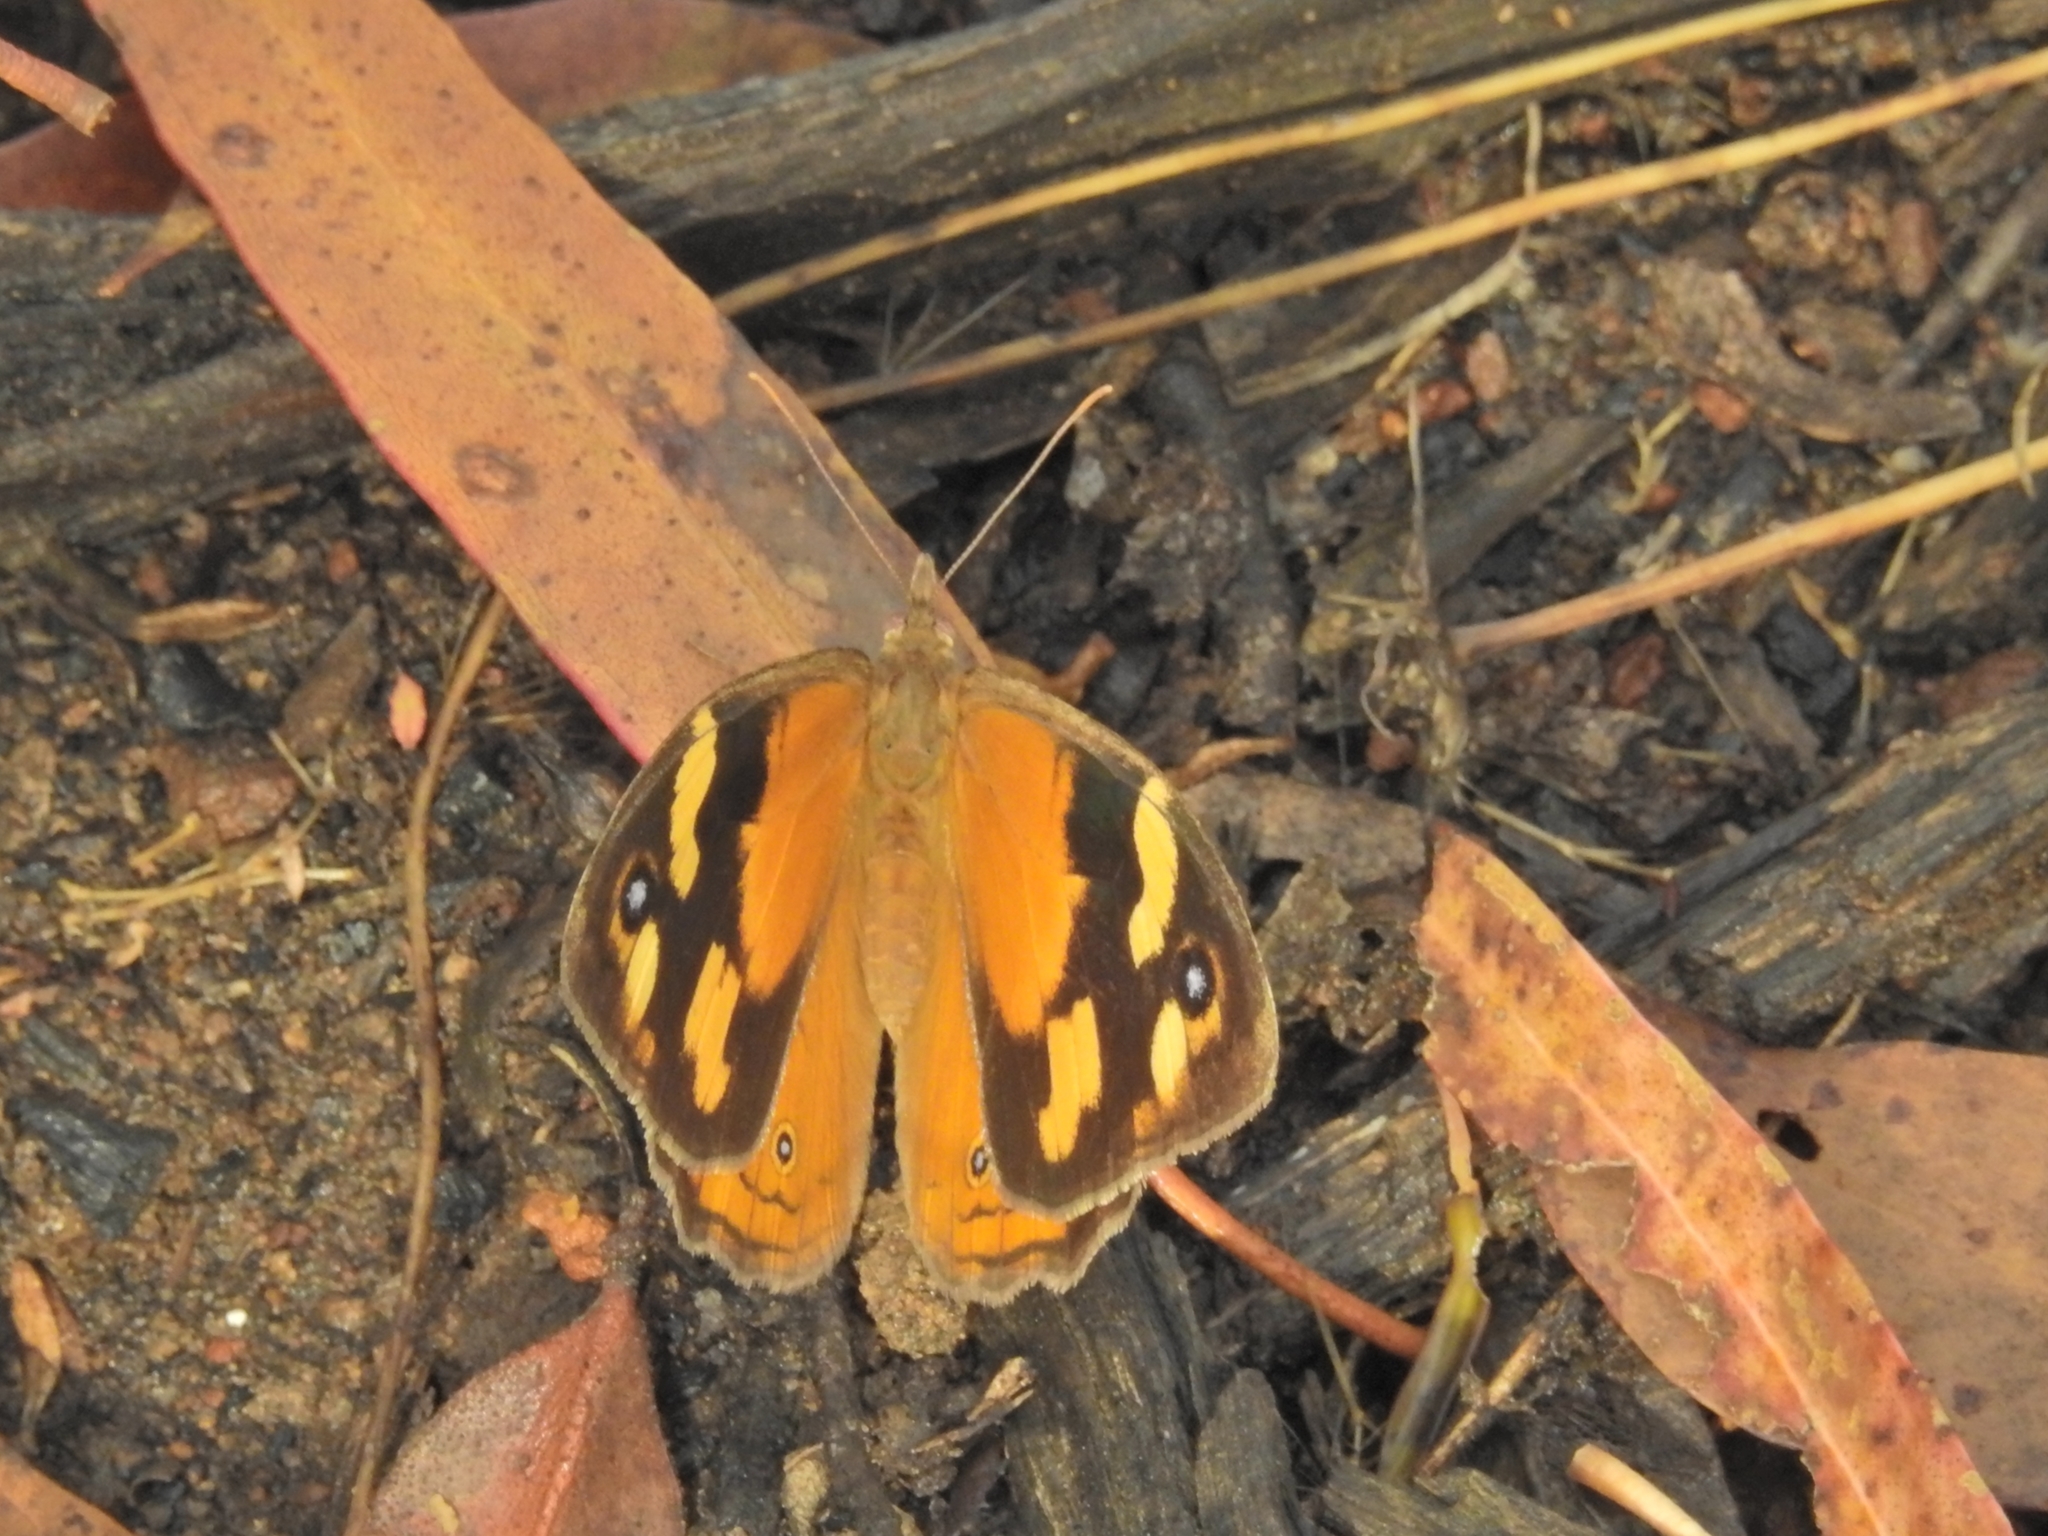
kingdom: Animalia
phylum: Arthropoda
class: Insecta
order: Lepidoptera
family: Nymphalidae
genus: Heteronympha
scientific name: Heteronympha merope
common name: Common brown
